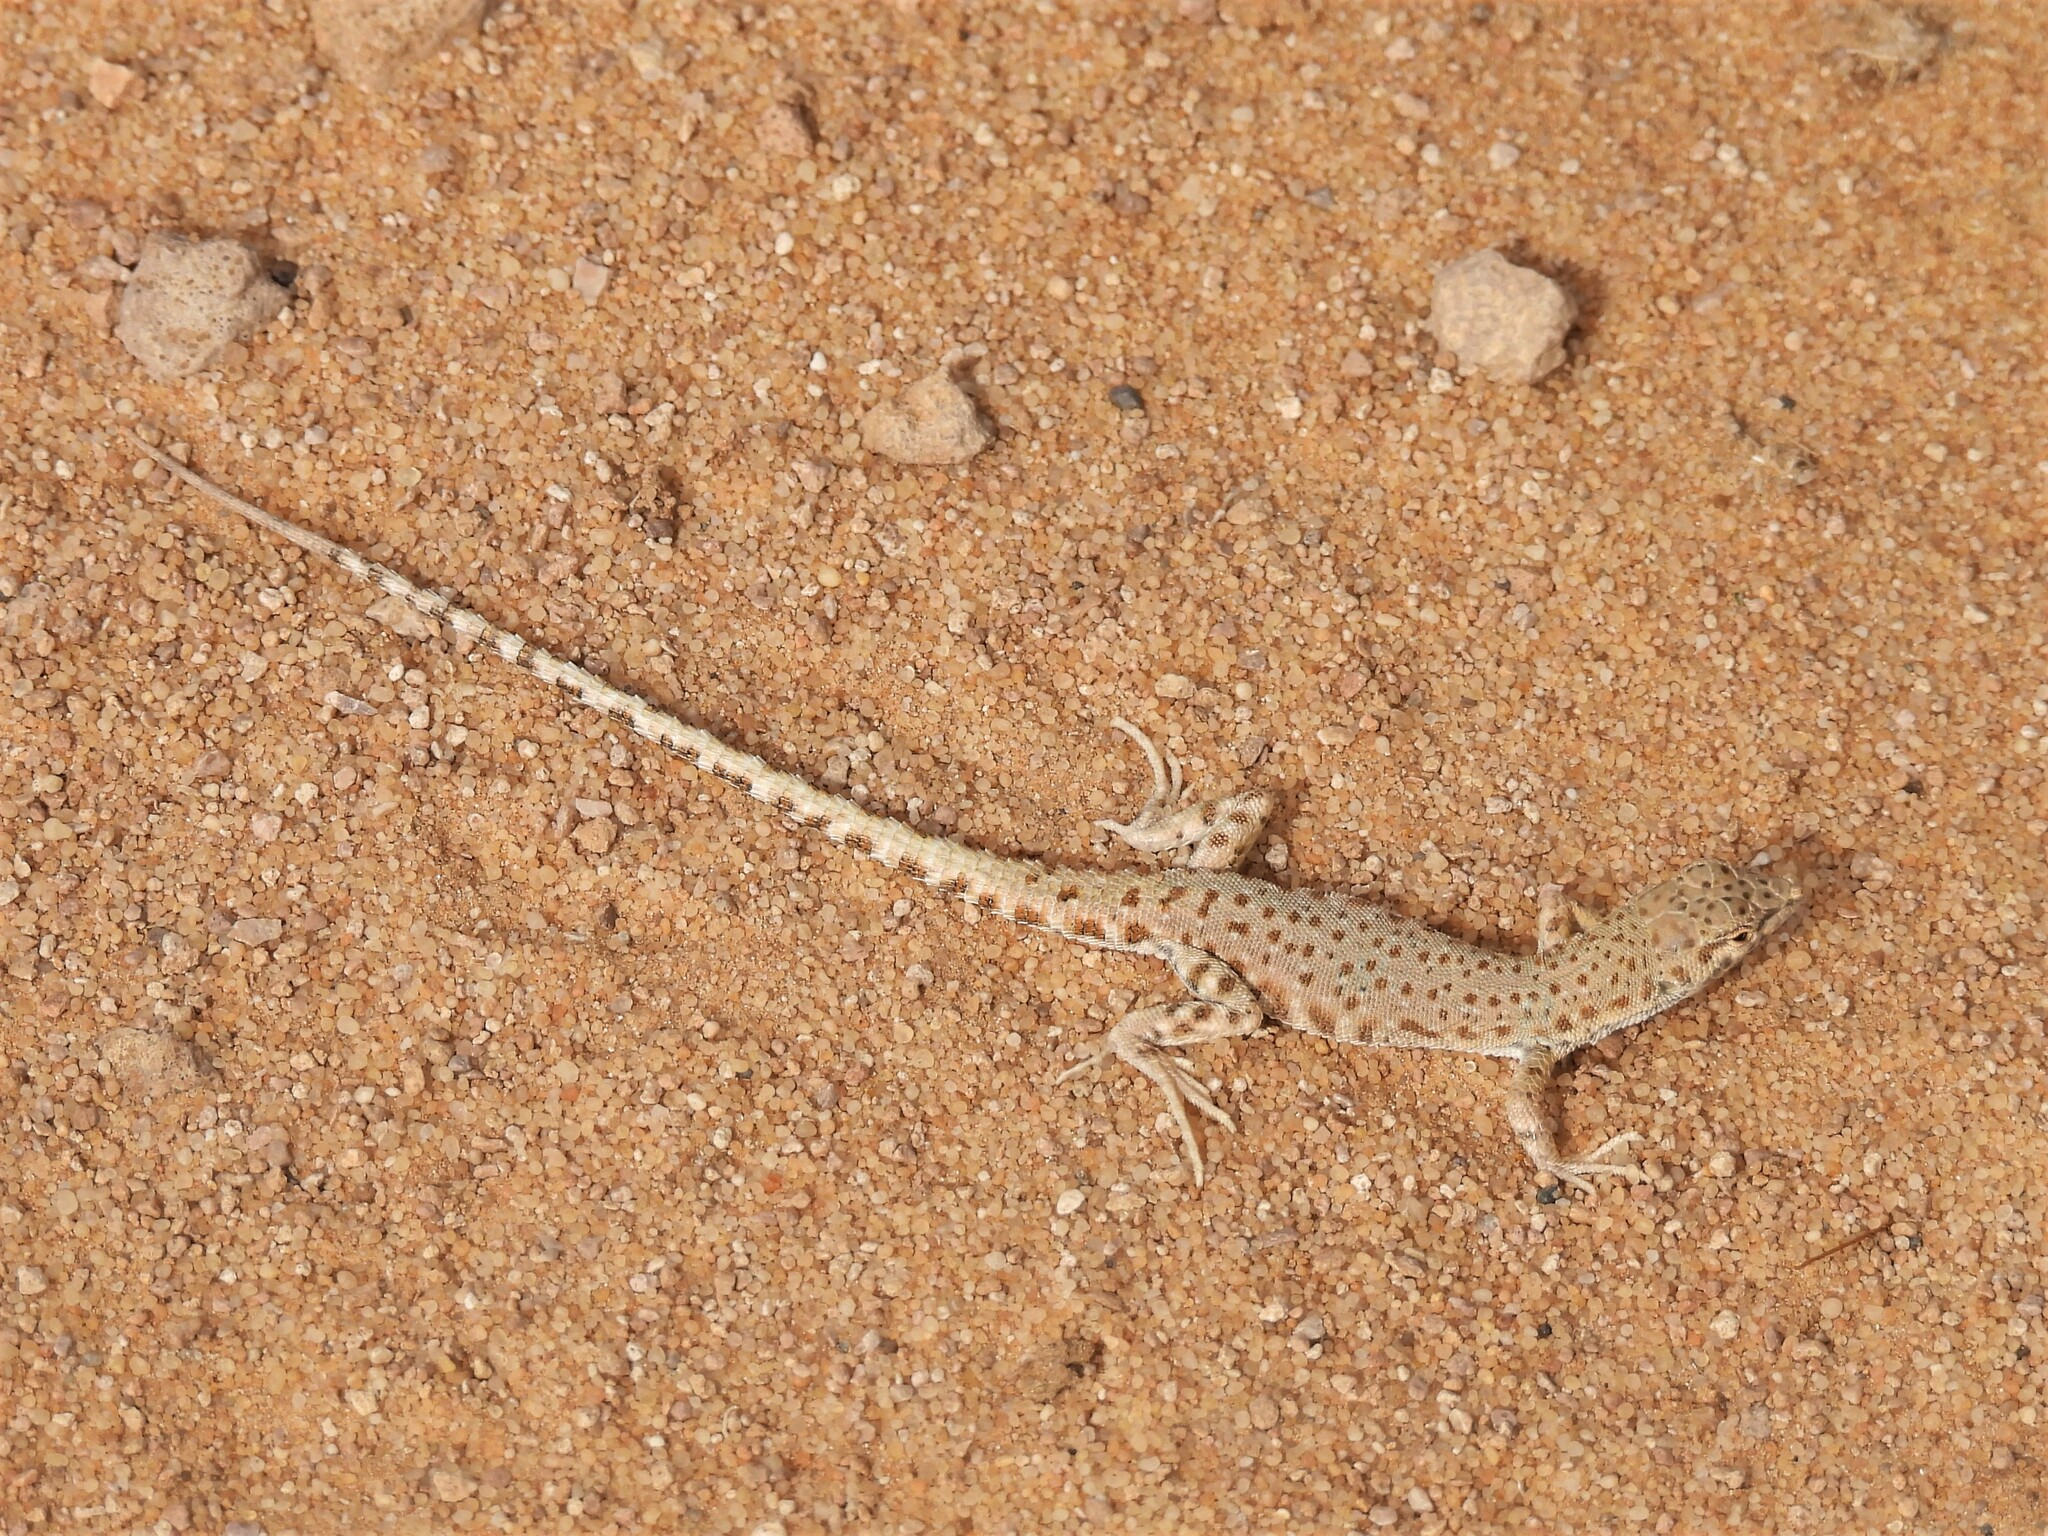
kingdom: Animalia
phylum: Chordata
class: Squamata
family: Lacertidae
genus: Mesalina
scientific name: Mesalina brevirostris
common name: Blanford's short-nosed desert lizard
